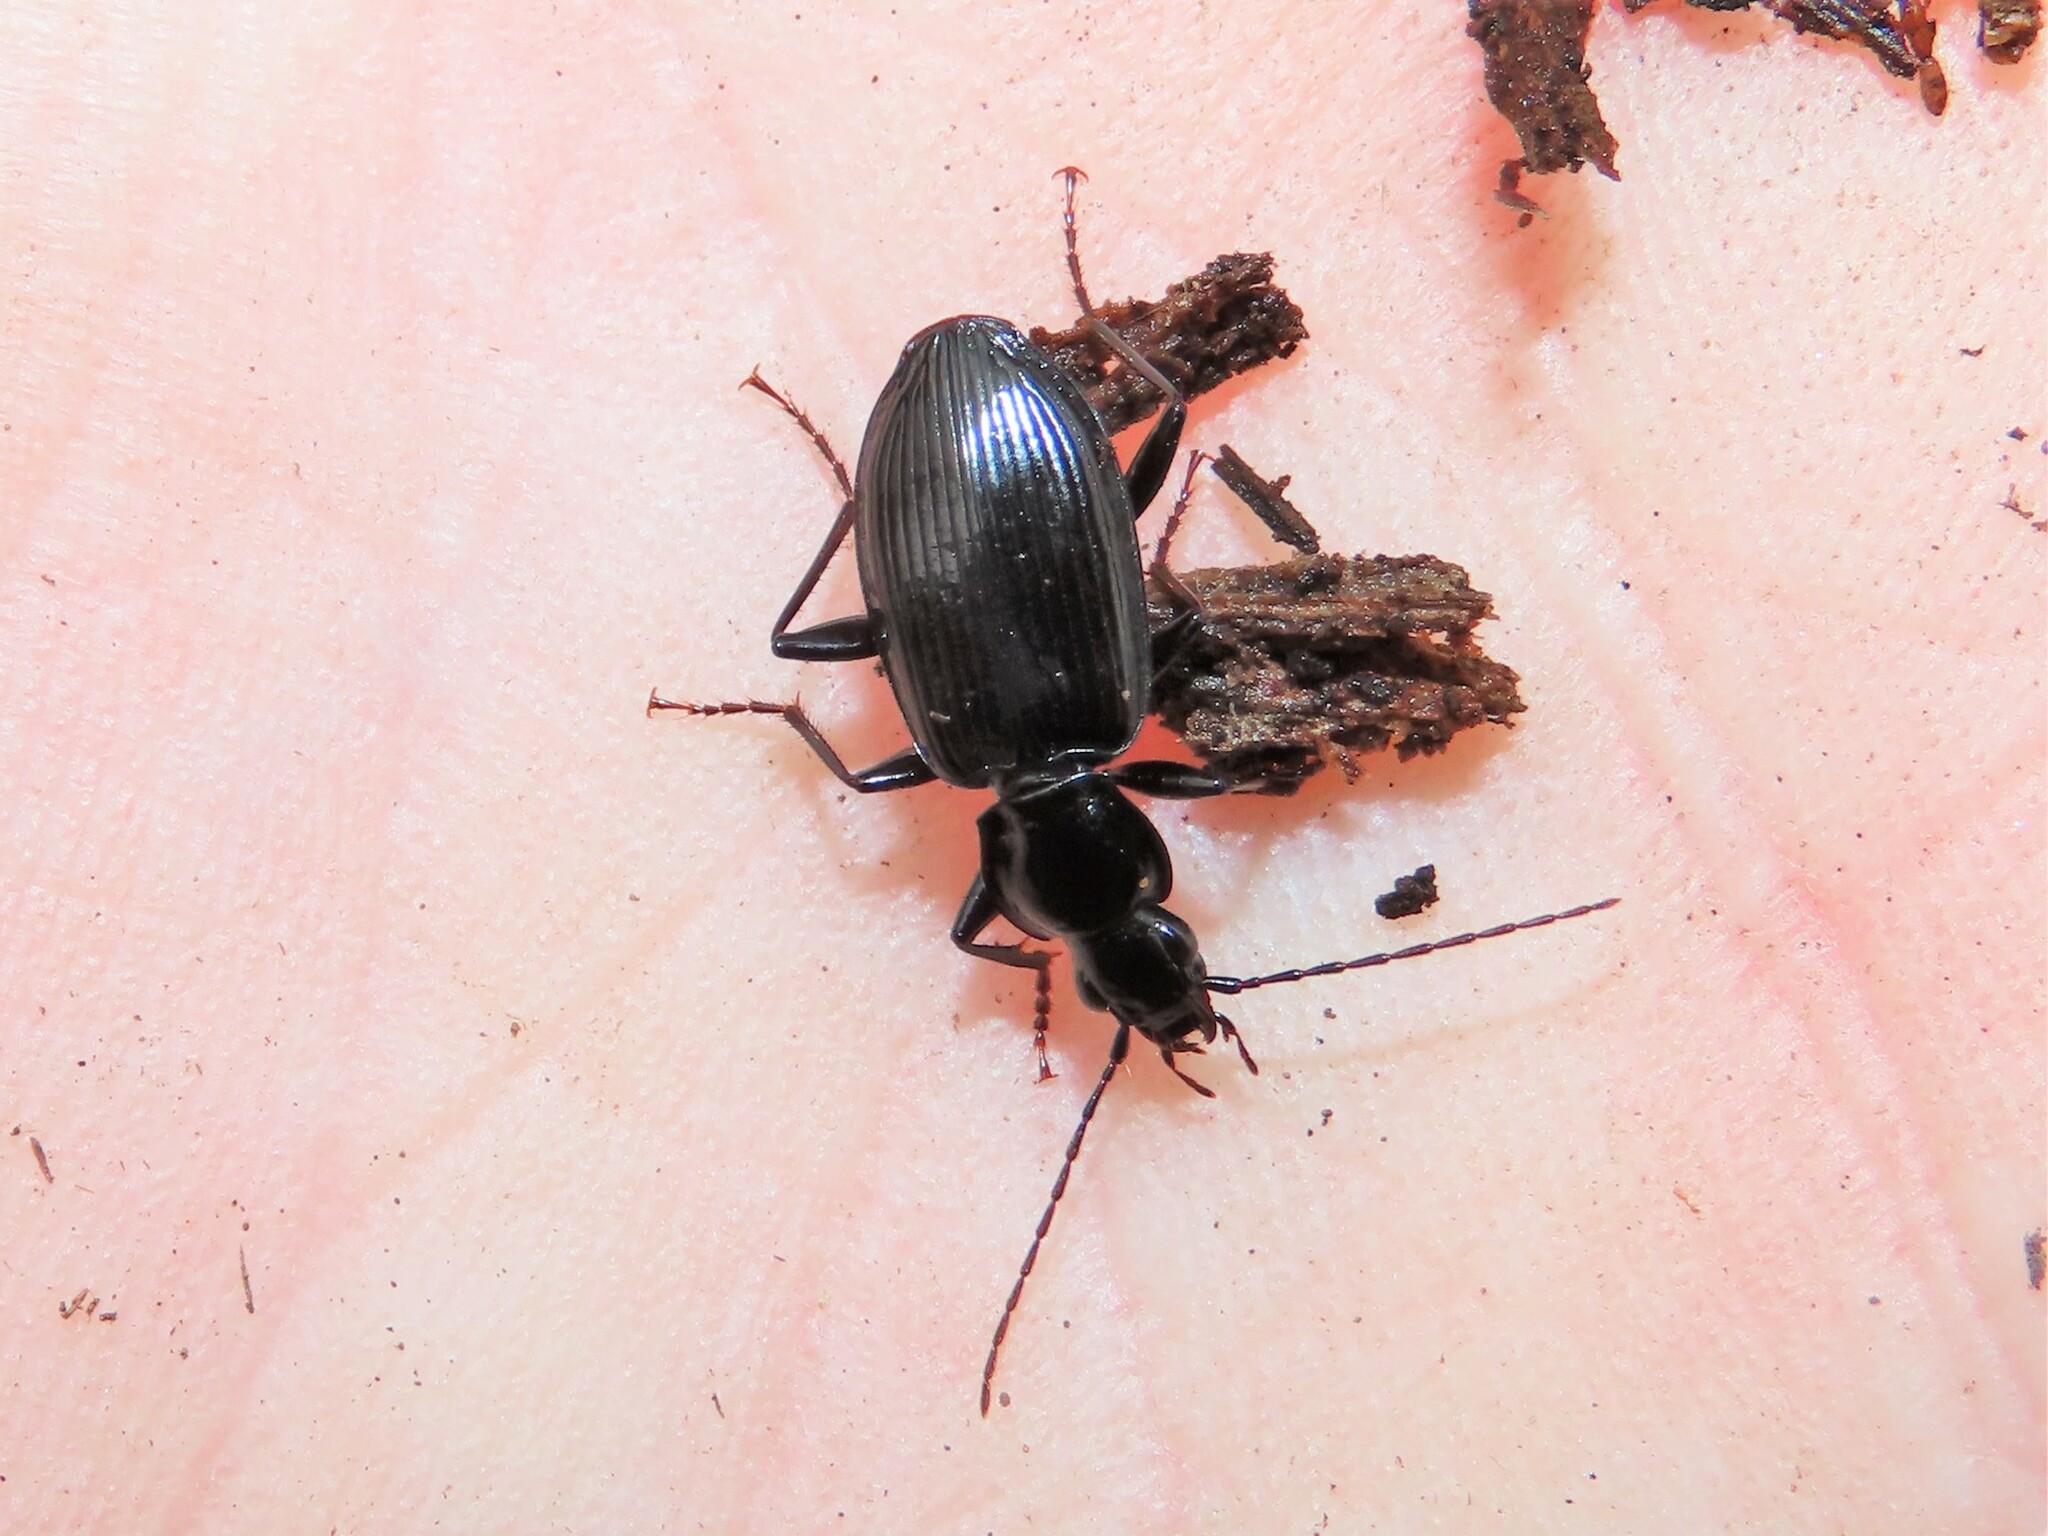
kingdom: Animalia
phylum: Arthropoda
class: Insecta
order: Coleoptera
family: Carabidae
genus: Platynus
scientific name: Platynus decentis
